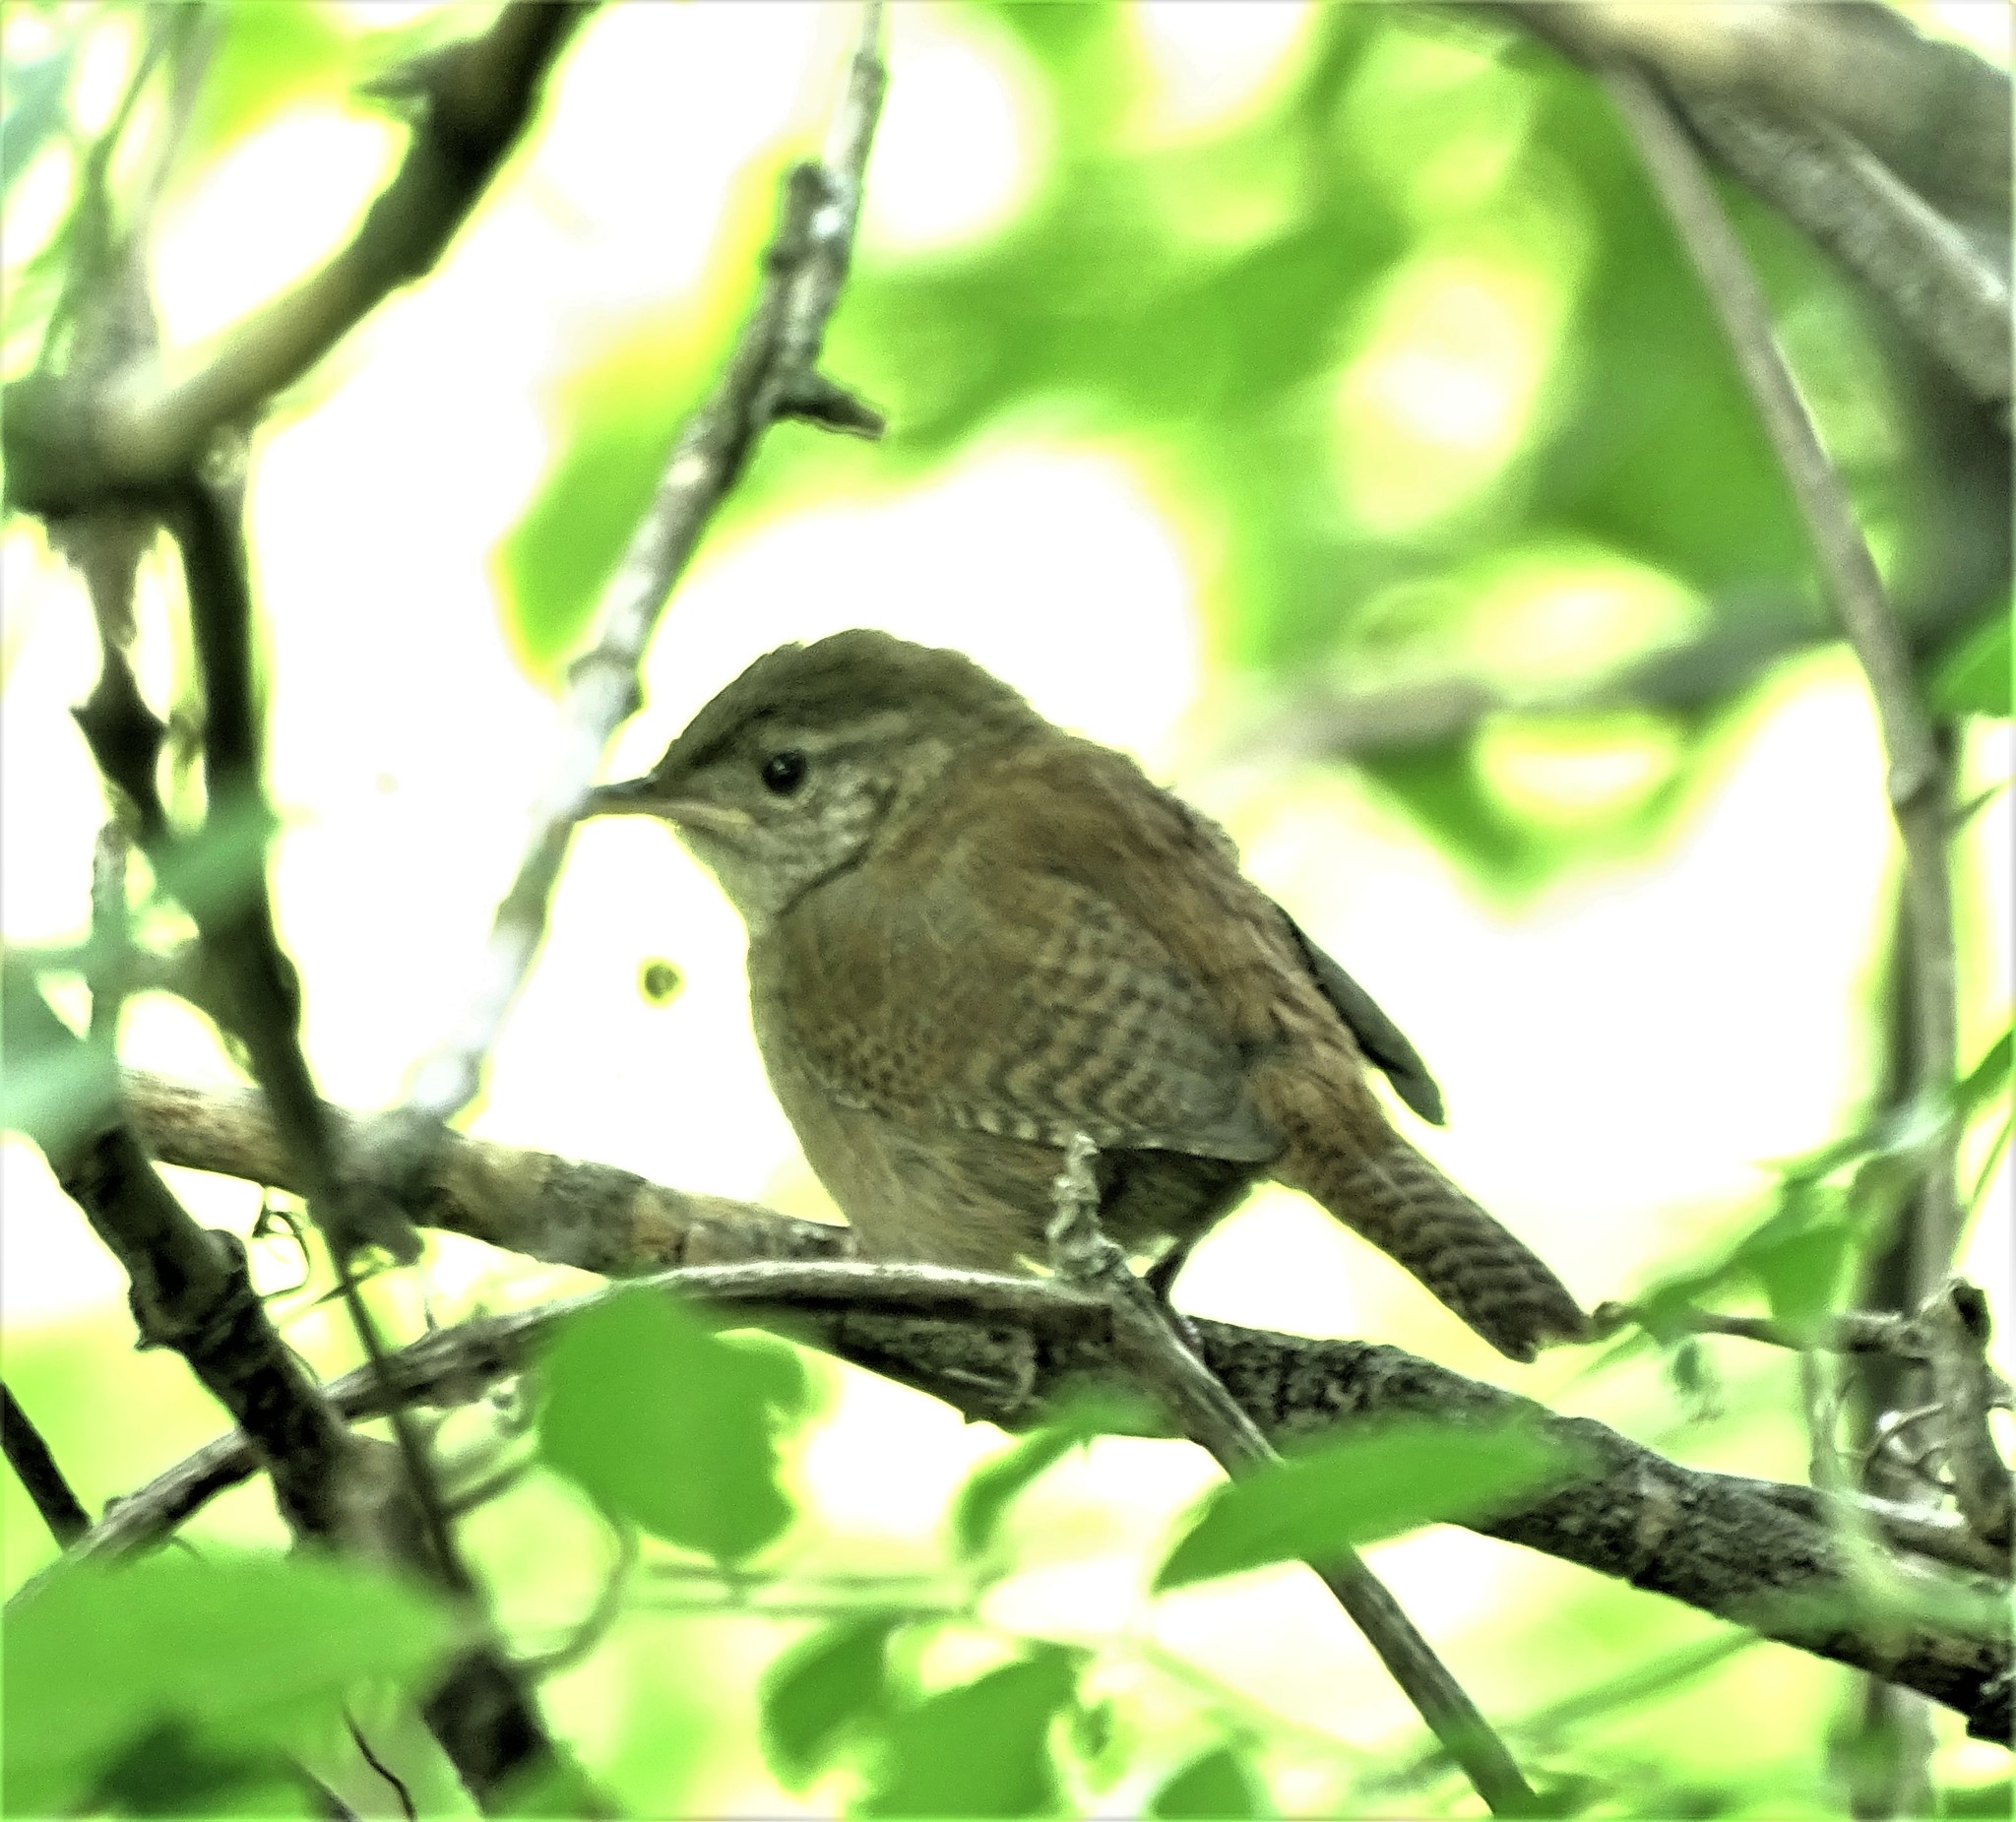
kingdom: Animalia
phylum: Chordata
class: Aves
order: Passeriformes
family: Troglodytidae
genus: Troglodytes
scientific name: Troglodytes aedon
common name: House wren
